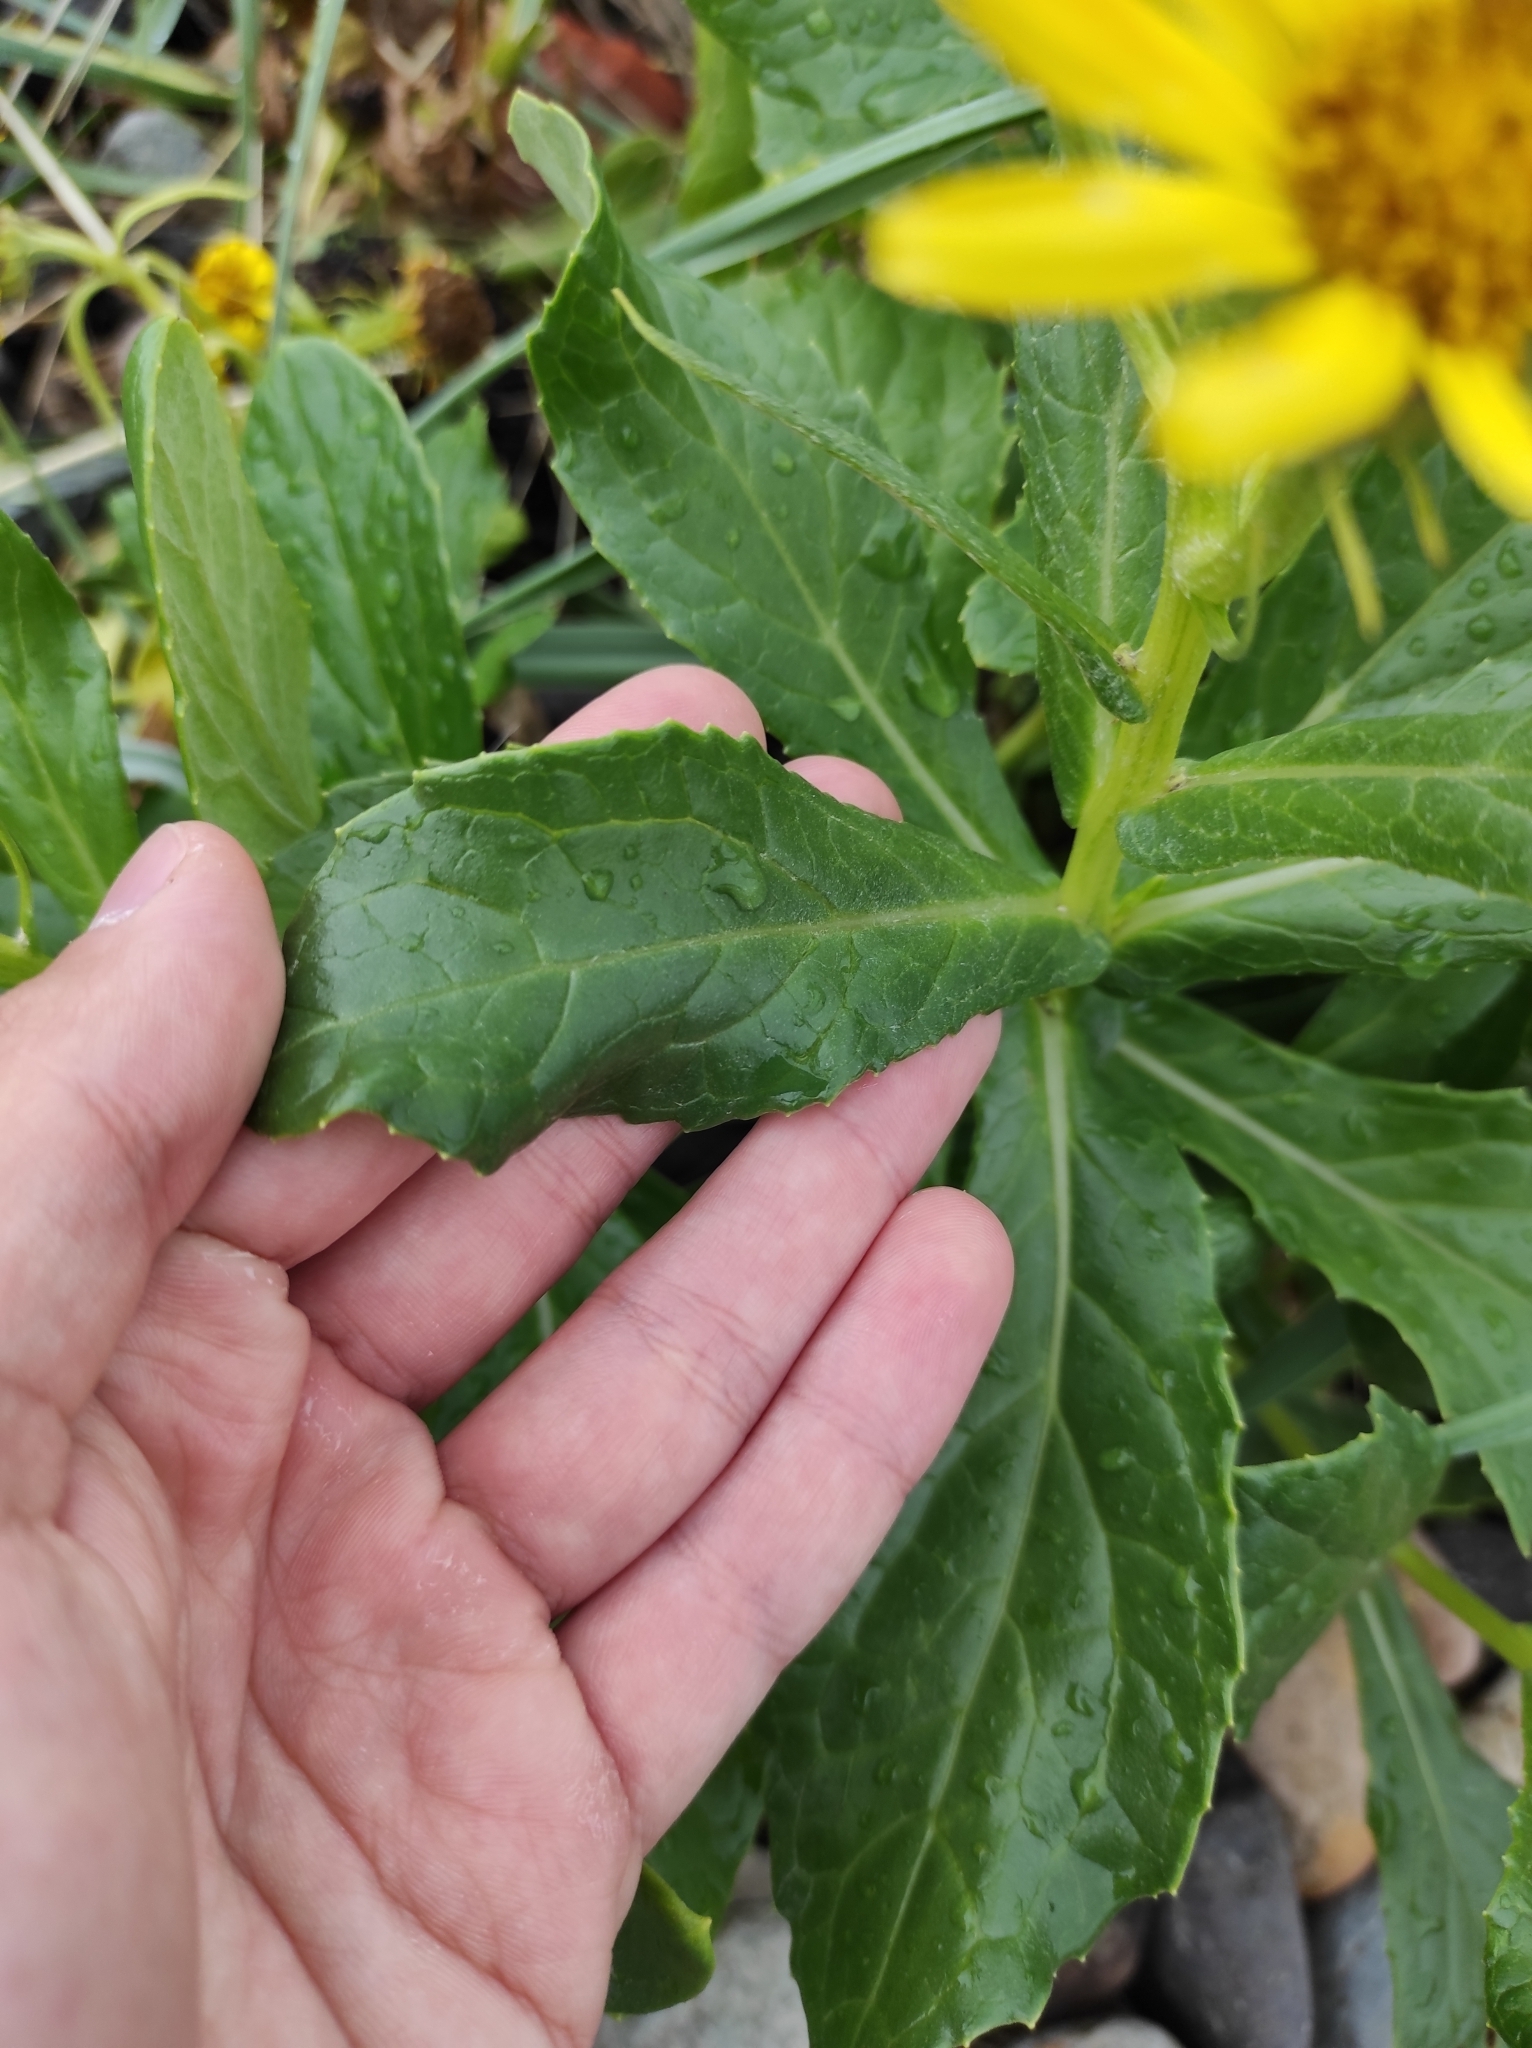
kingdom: Plantae
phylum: Tracheophyta
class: Magnoliopsida
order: Asterales
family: Asteraceae
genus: Jacobaea
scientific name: Jacobaea pseudoarnica
